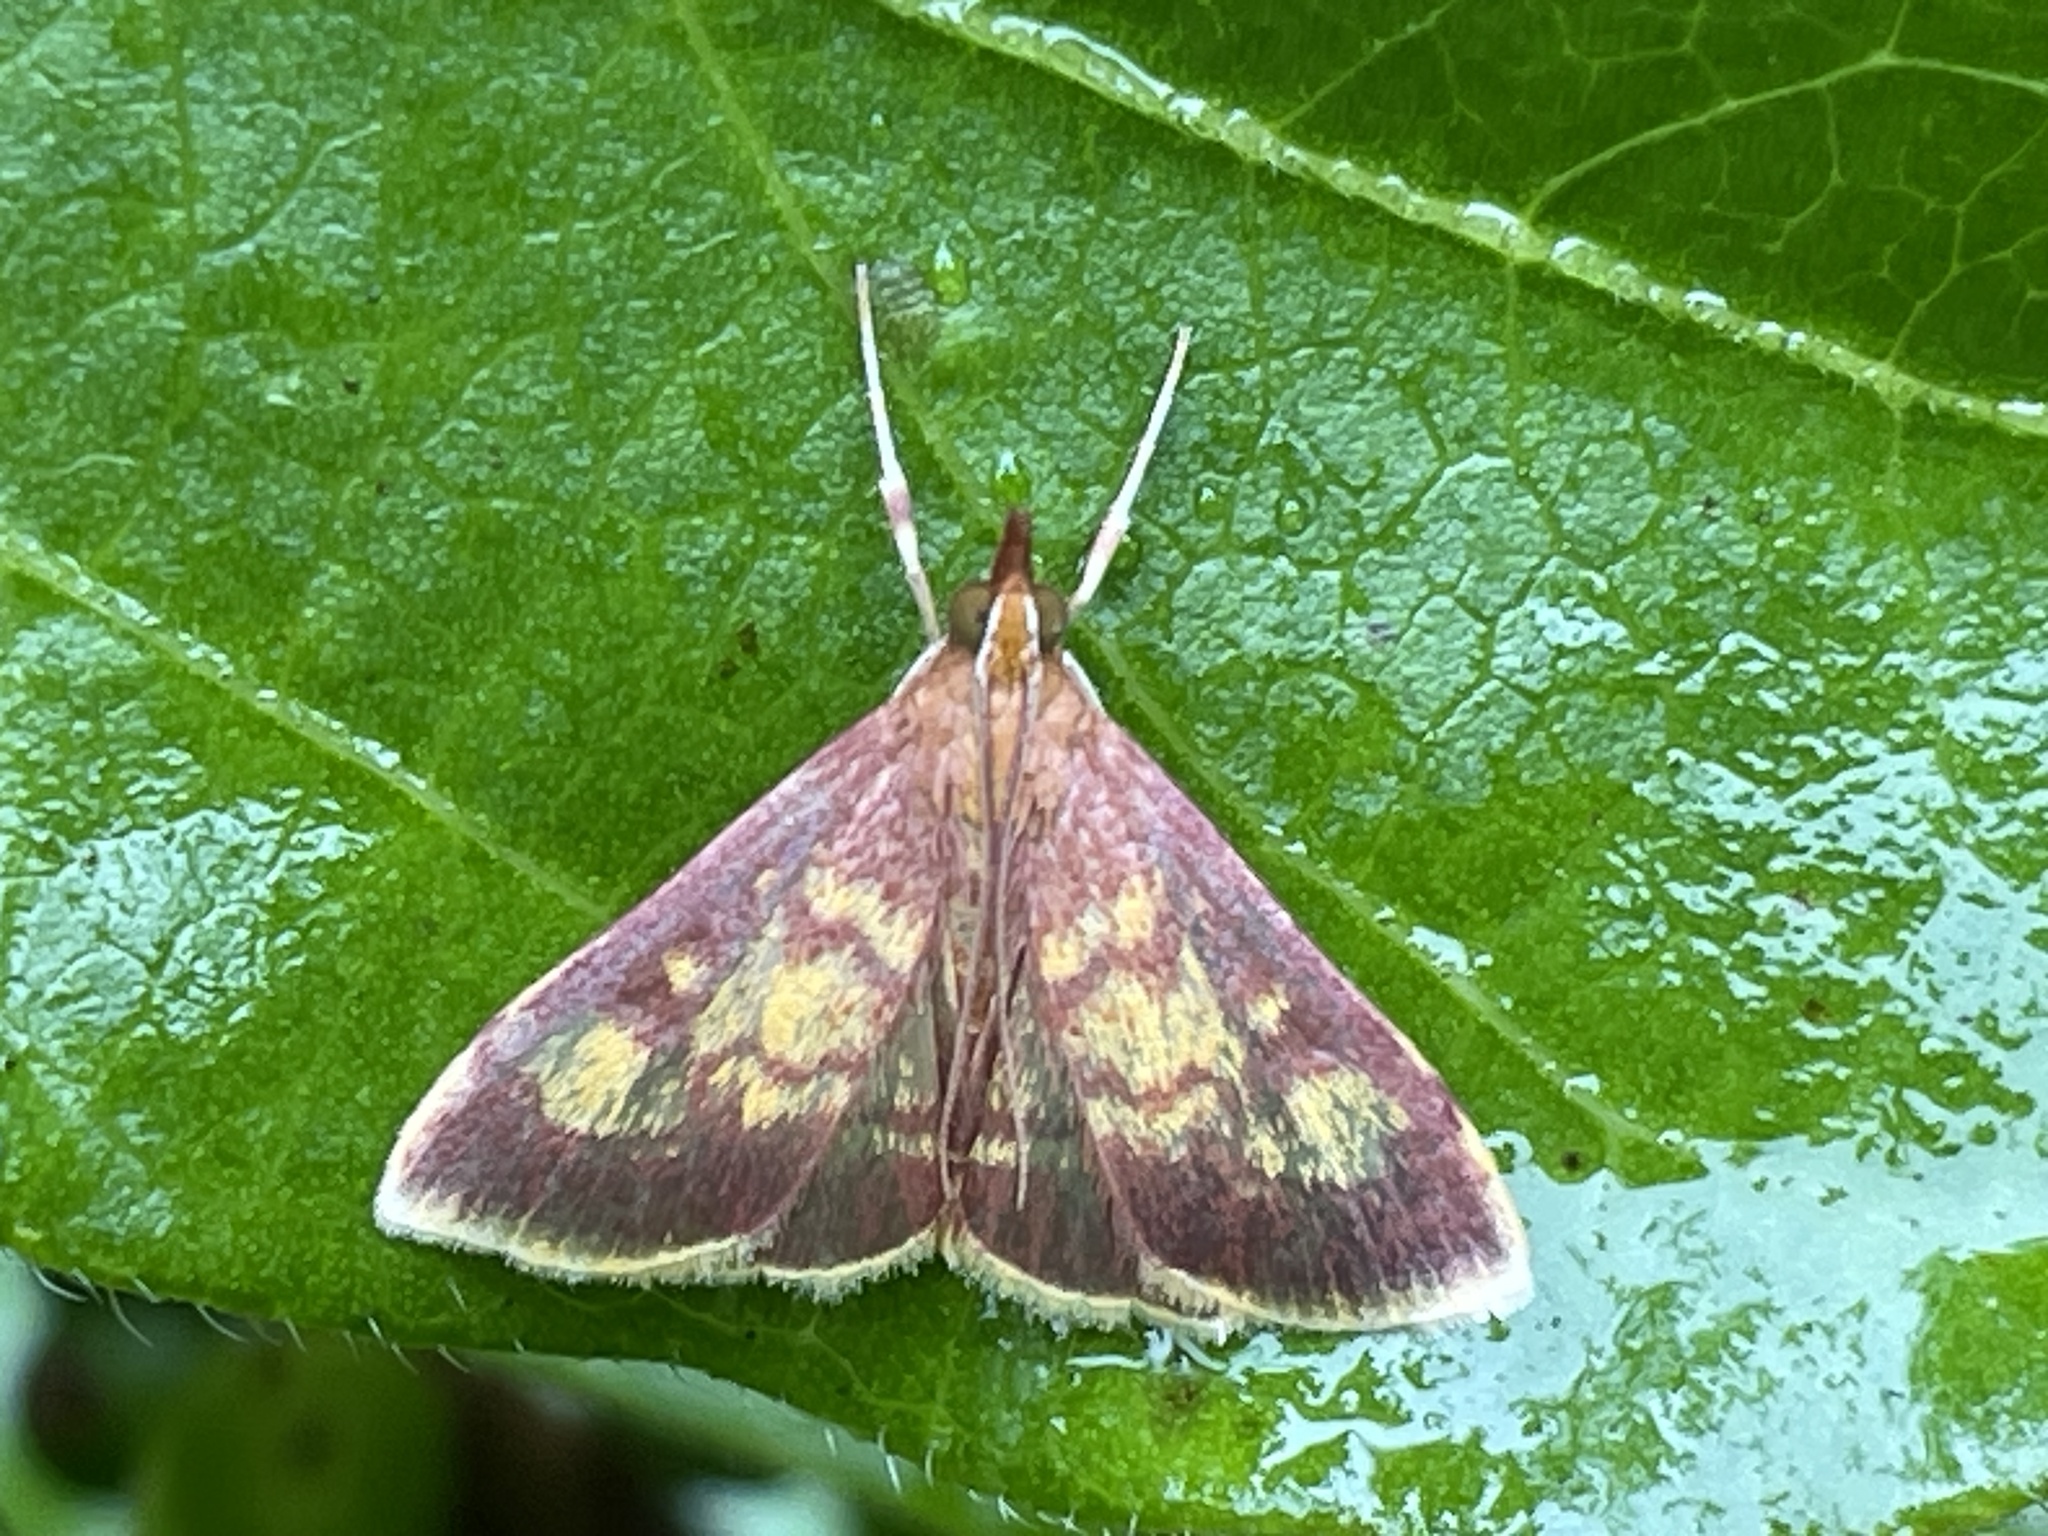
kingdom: Animalia
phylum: Arthropoda
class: Insecta
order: Lepidoptera
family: Crambidae
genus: Pyrausta
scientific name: Pyrausta acrionalis
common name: Mint-loving pyrausta moth
